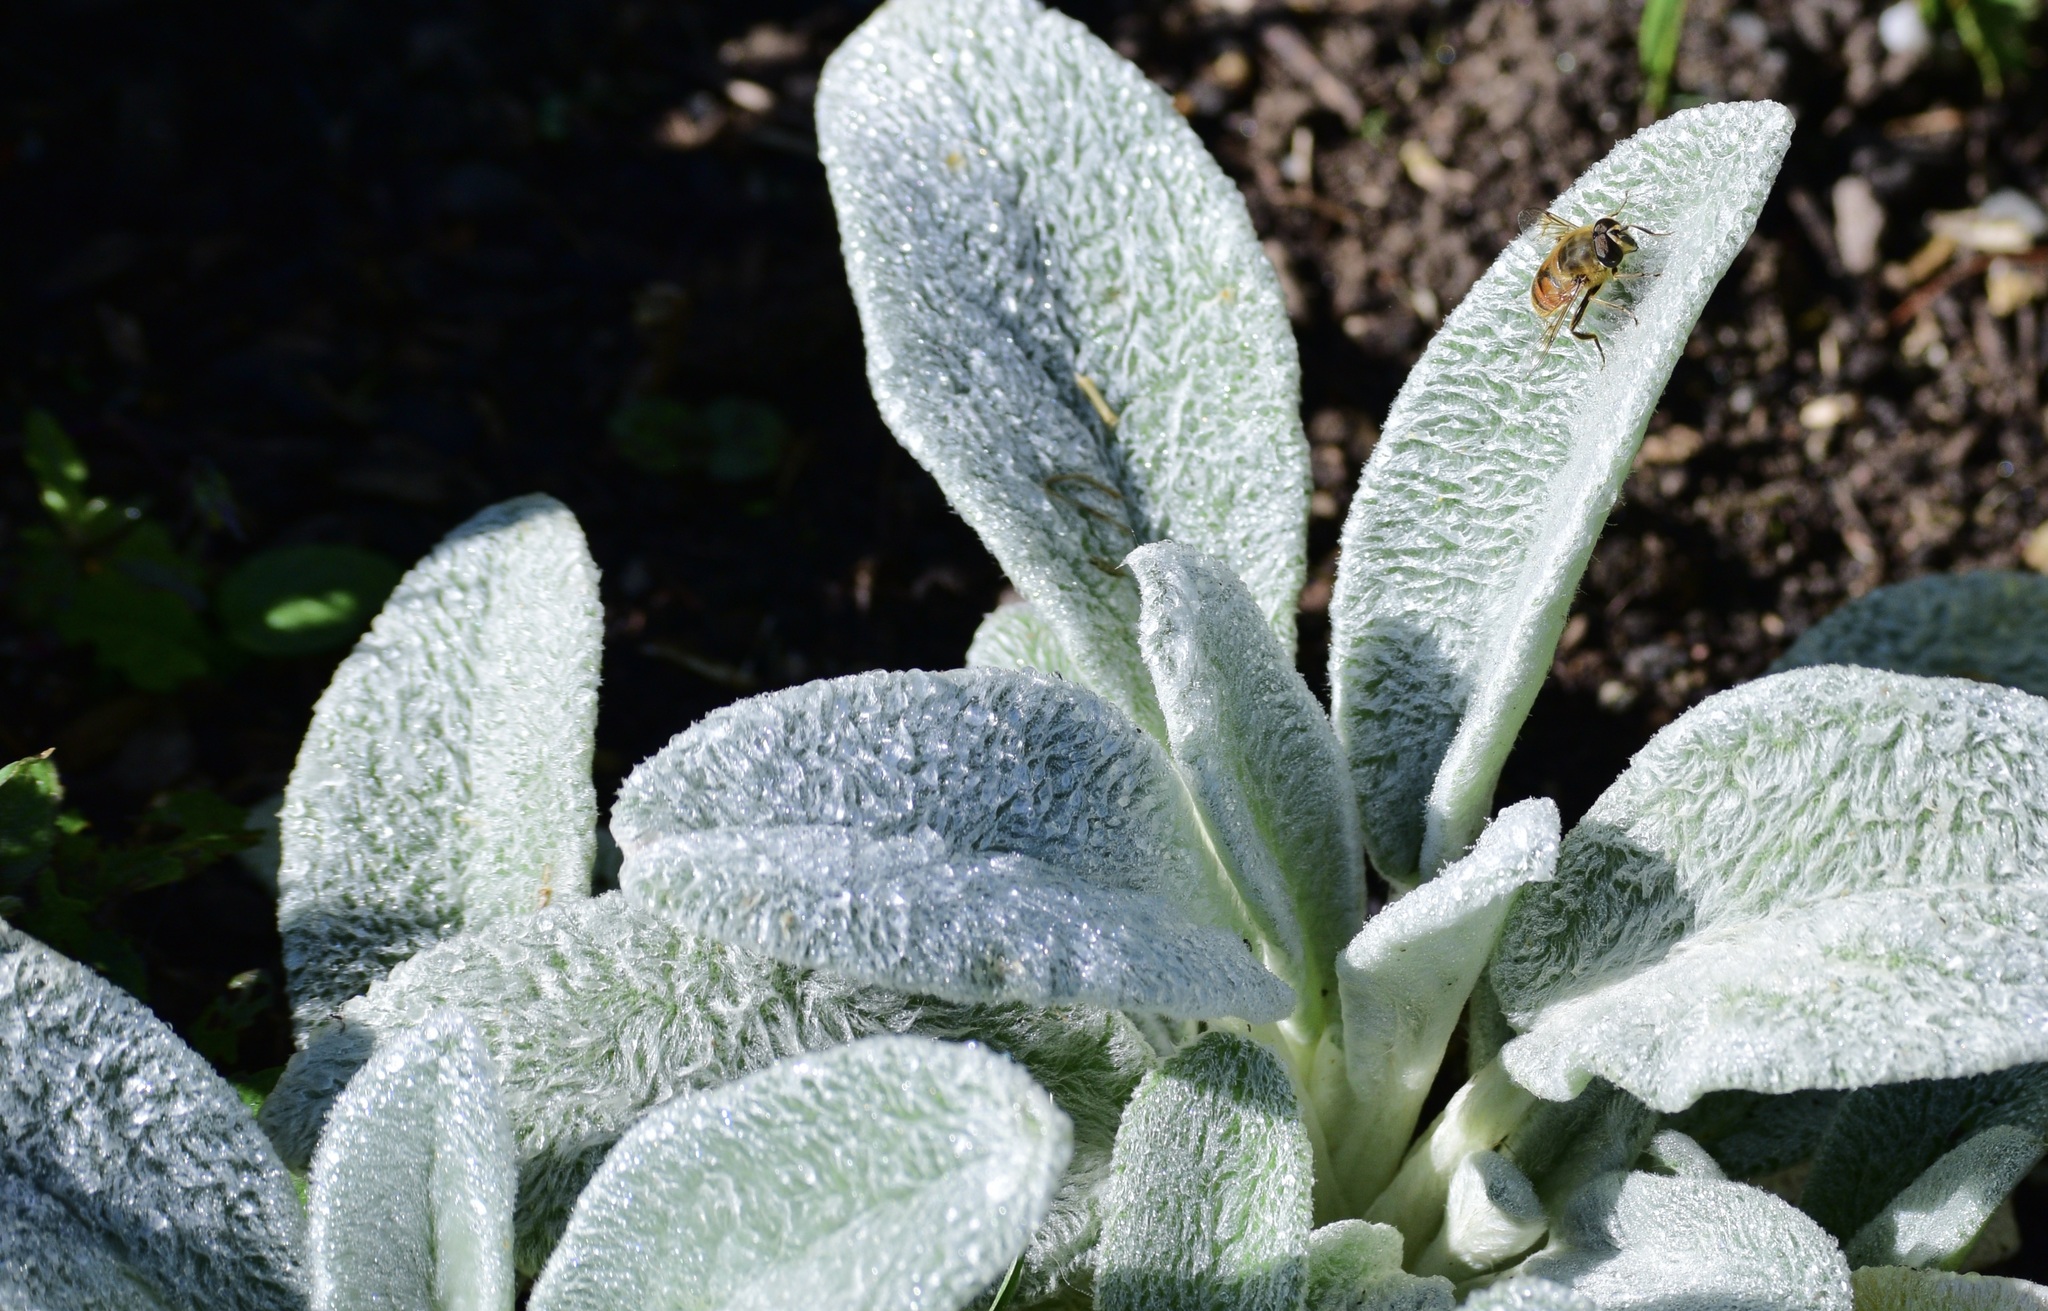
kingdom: Animalia
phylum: Arthropoda
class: Insecta
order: Diptera
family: Syrphidae
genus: Eristalis
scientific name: Eristalis tenax
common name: Drone fly
